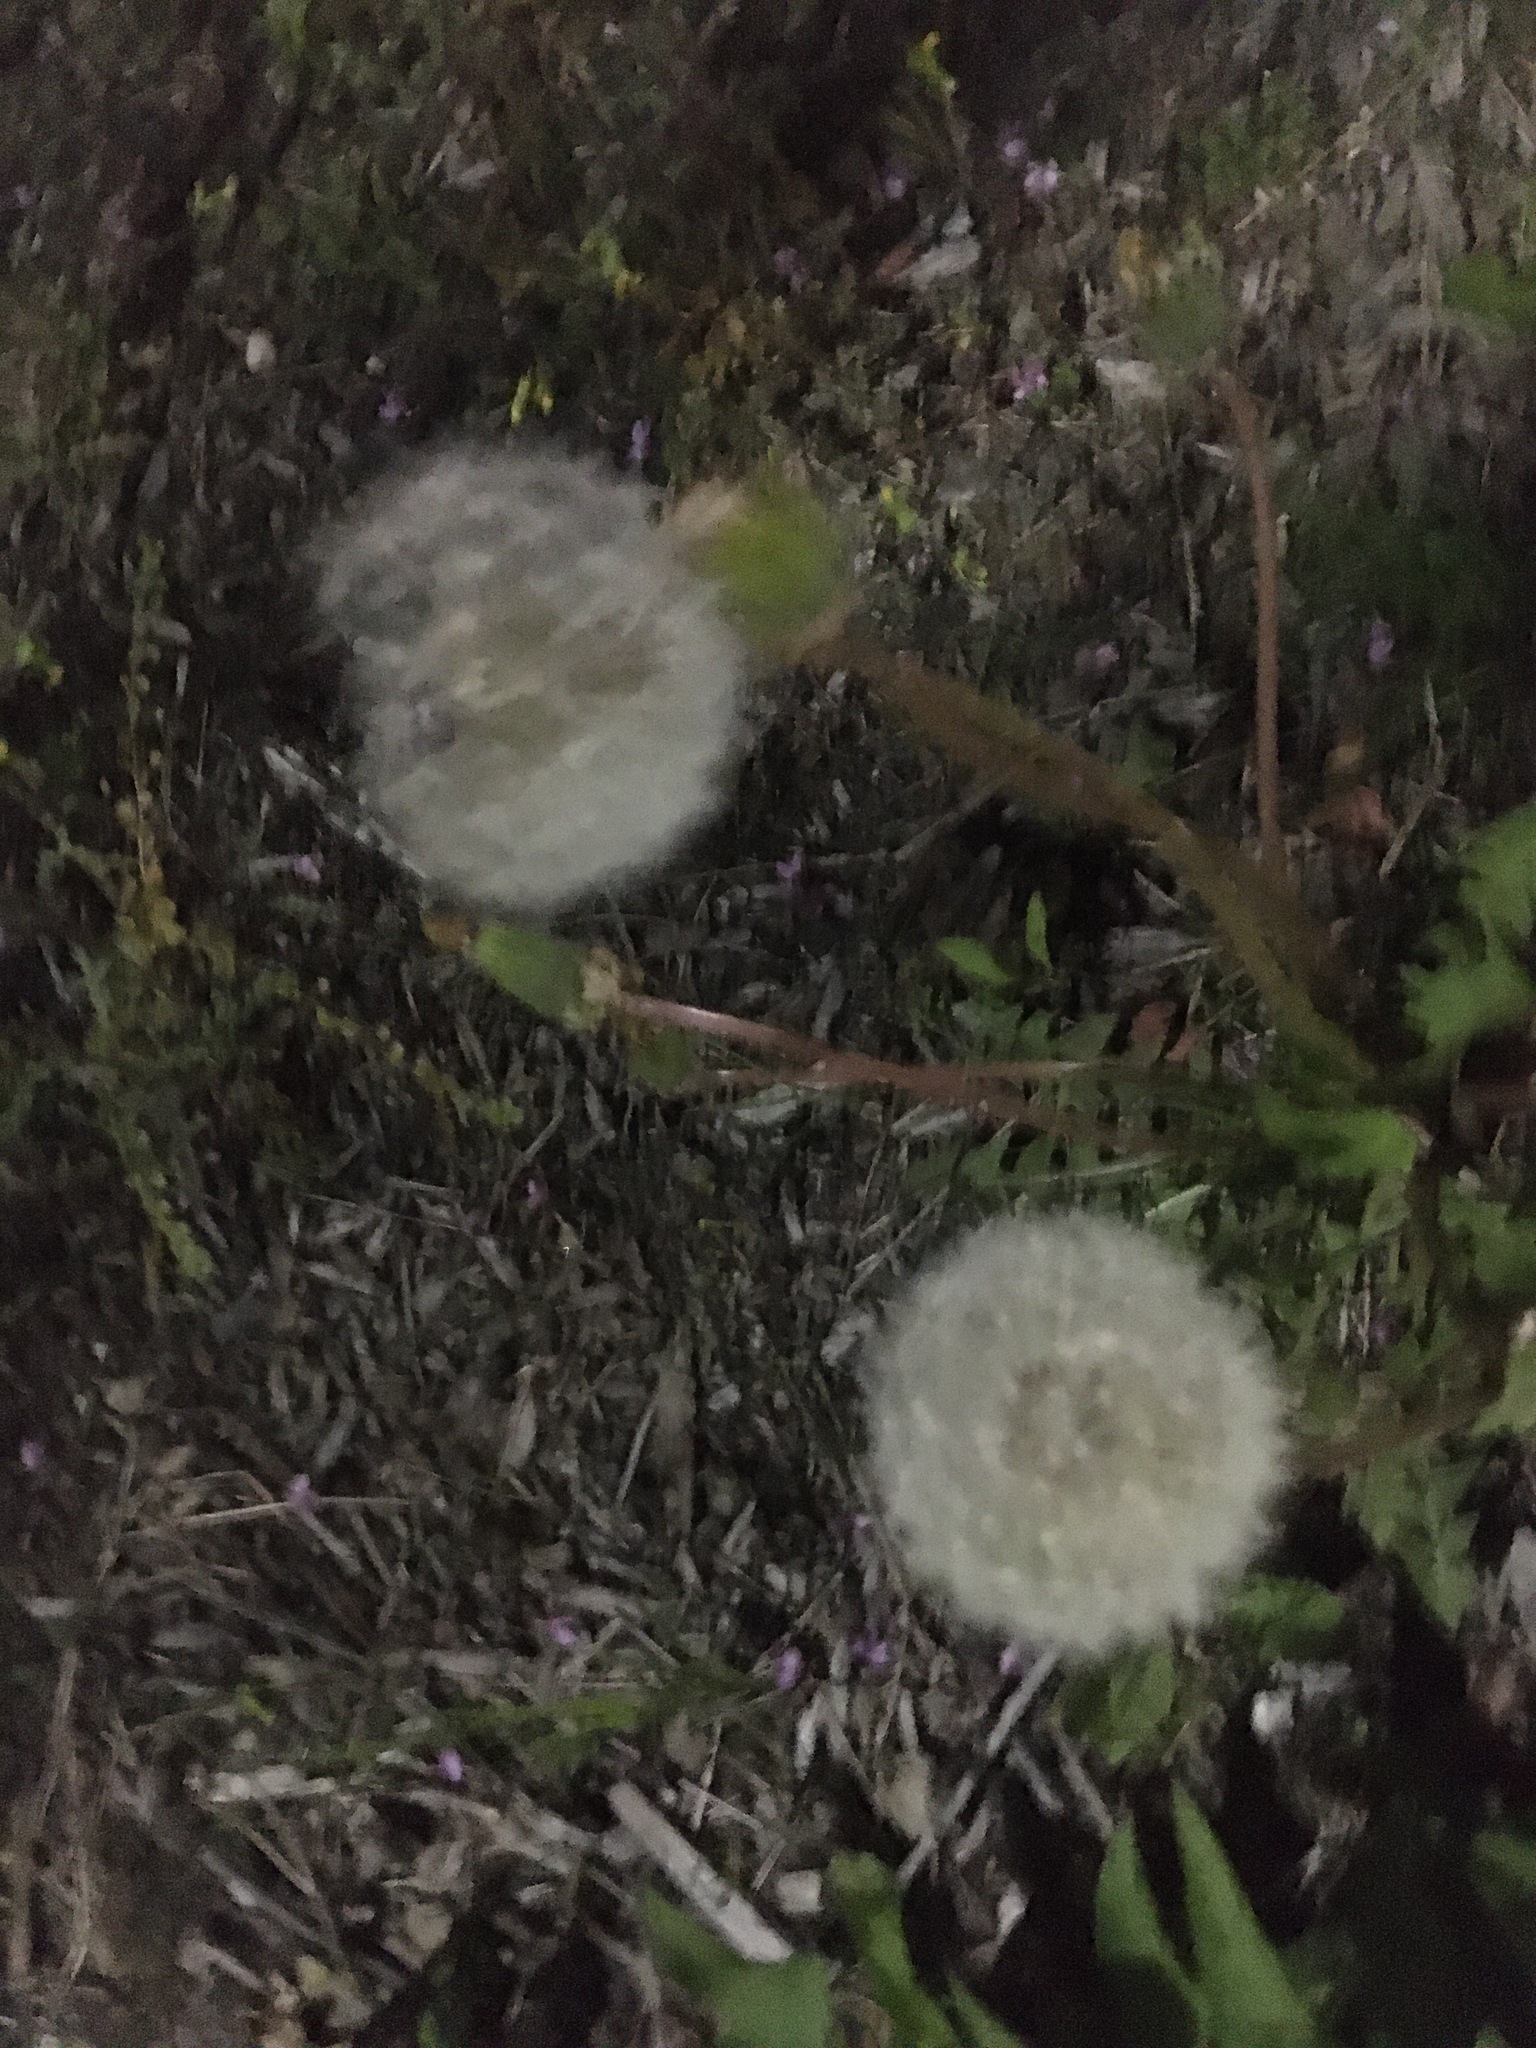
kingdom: Plantae
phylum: Tracheophyta
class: Magnoliopsida
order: Asterales
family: Asteraceae
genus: Taraxacum
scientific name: Taraxacum officinale
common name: Common dandelion
